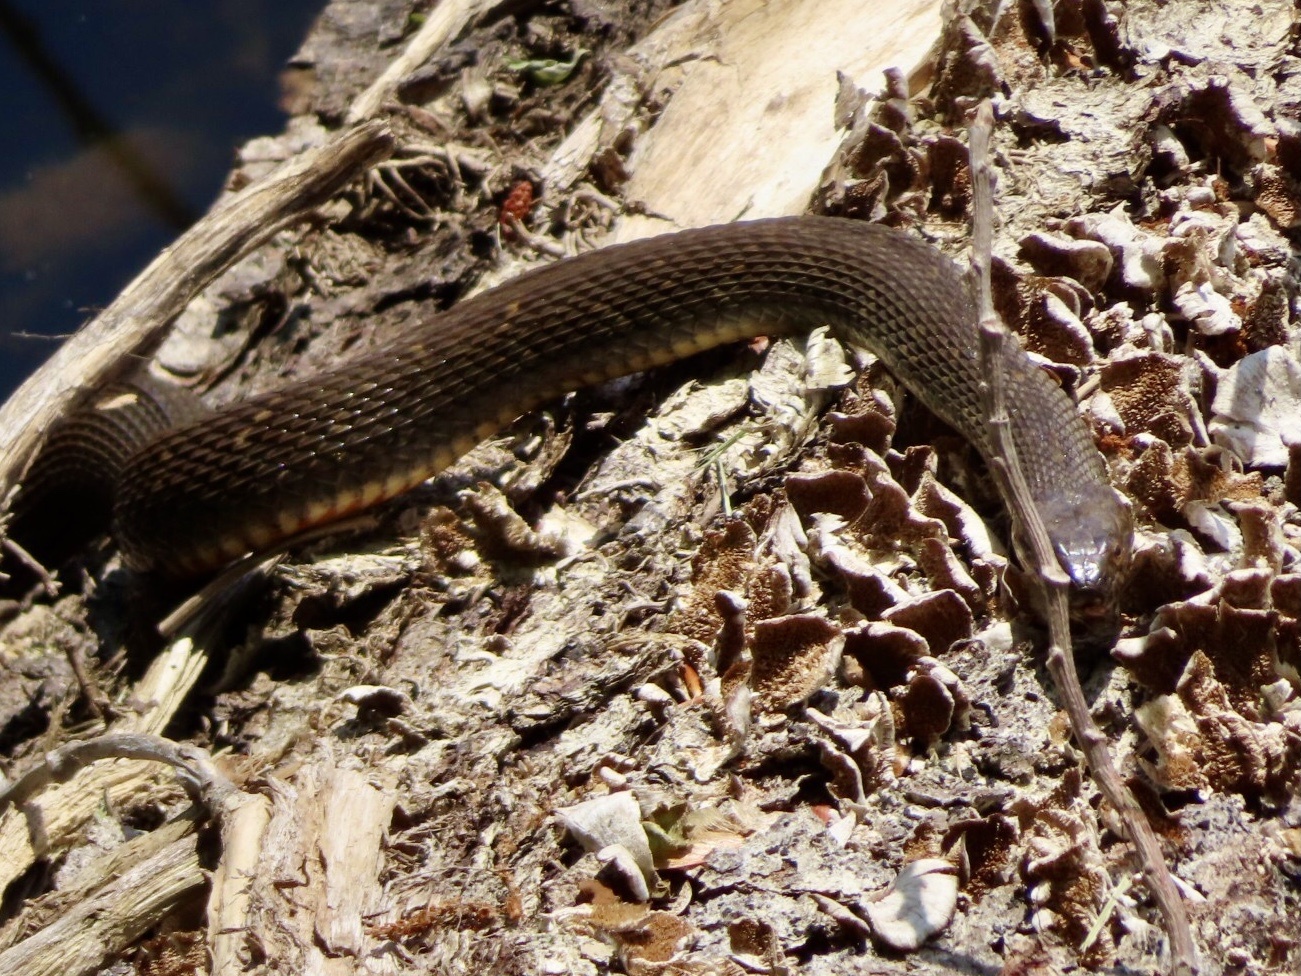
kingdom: Animalia
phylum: Chordata
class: Squamata
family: Colubridae
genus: Nerodia
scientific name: Nerodia sipedon
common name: Northern water snake
